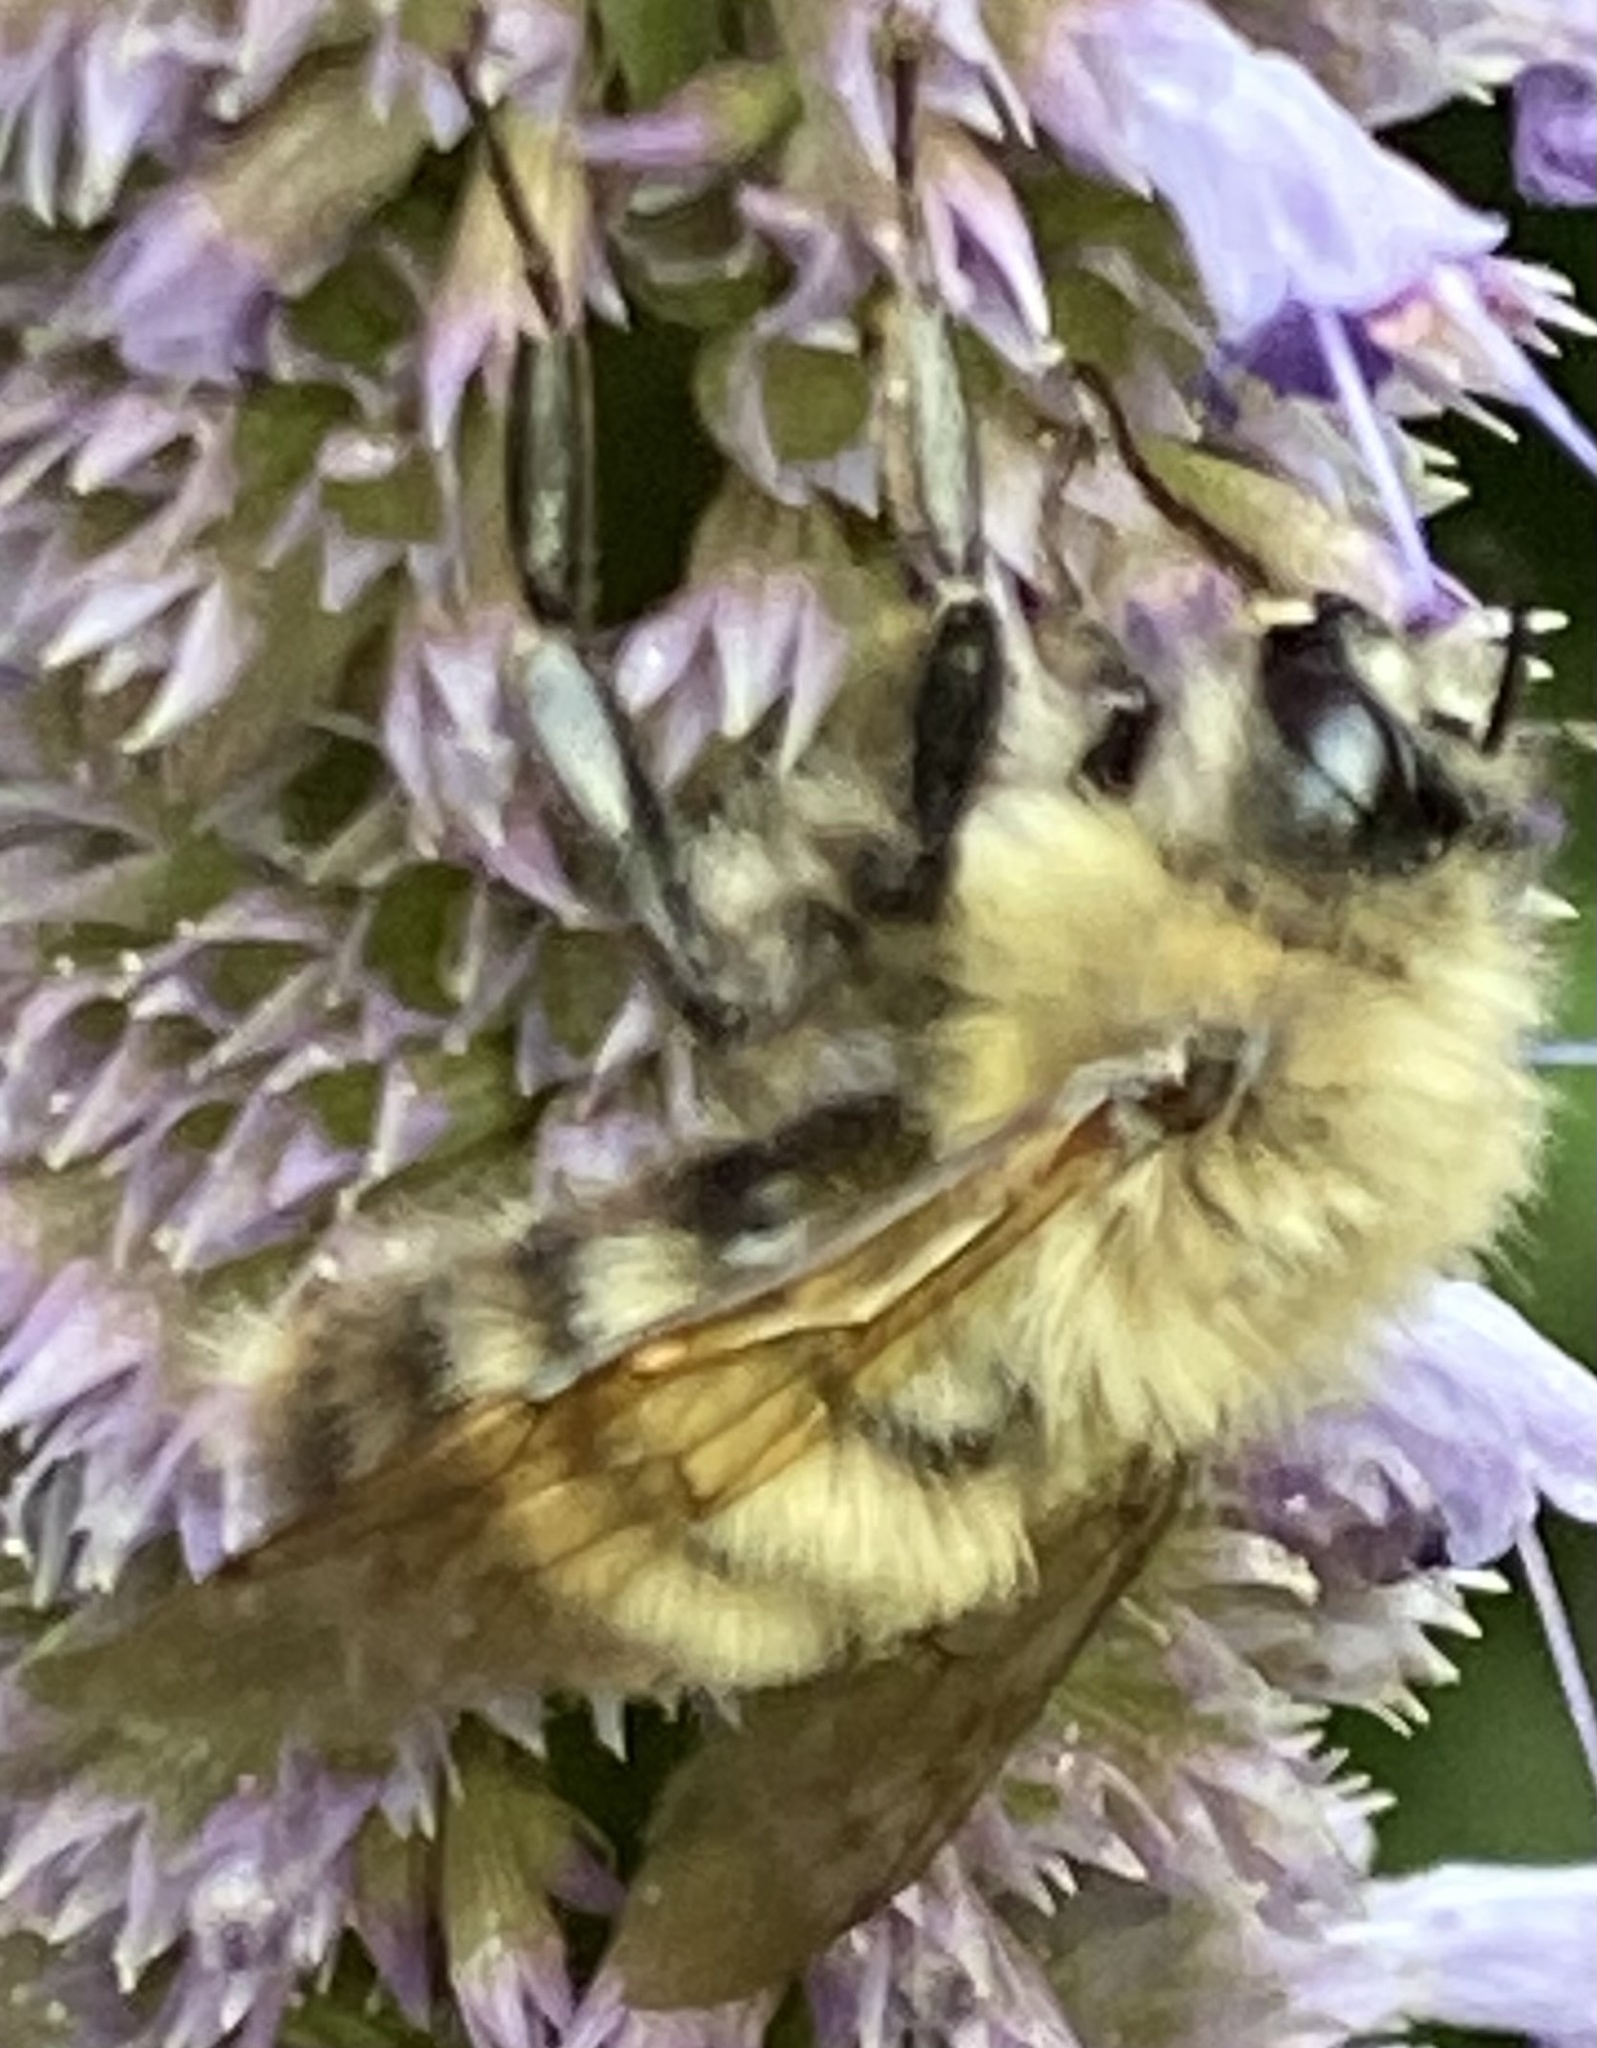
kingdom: Animalia
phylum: Arthropoda
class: Insecta
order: Hymenoptera
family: Apidae
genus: Bombus
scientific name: Bombus perplexus
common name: Confusing bumble bee
